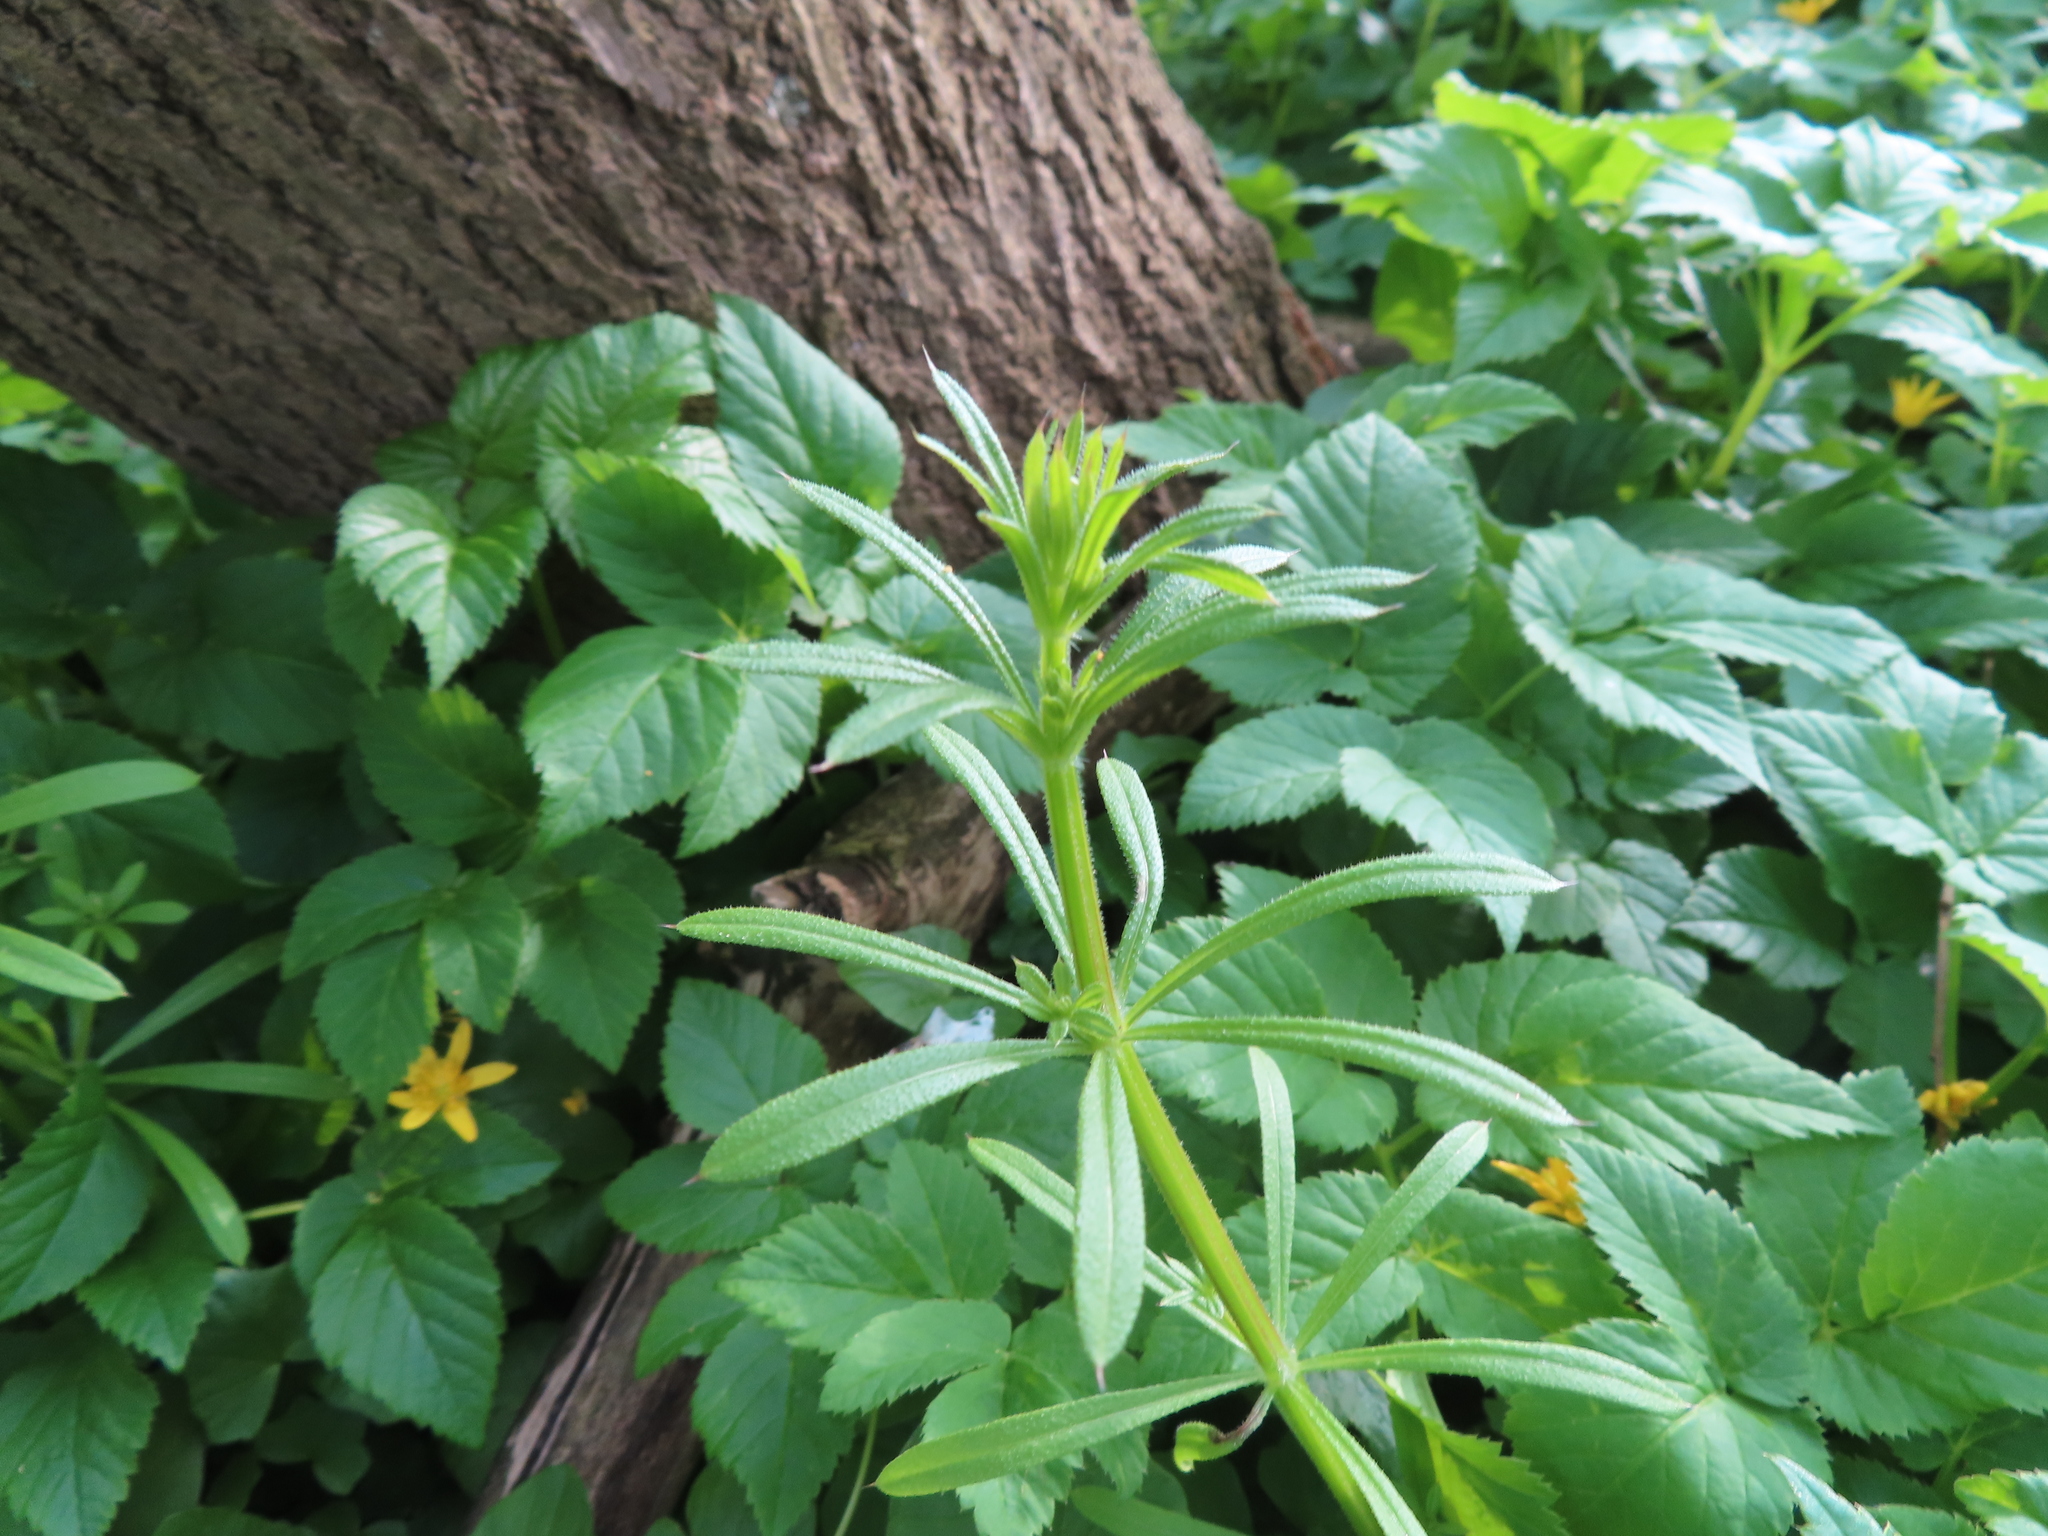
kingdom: Plantae
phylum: Tracheophyta
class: Magnoliopsida
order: Gentianales
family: Rubiaceae
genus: Galium
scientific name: Galium aparine
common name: Cleavers
